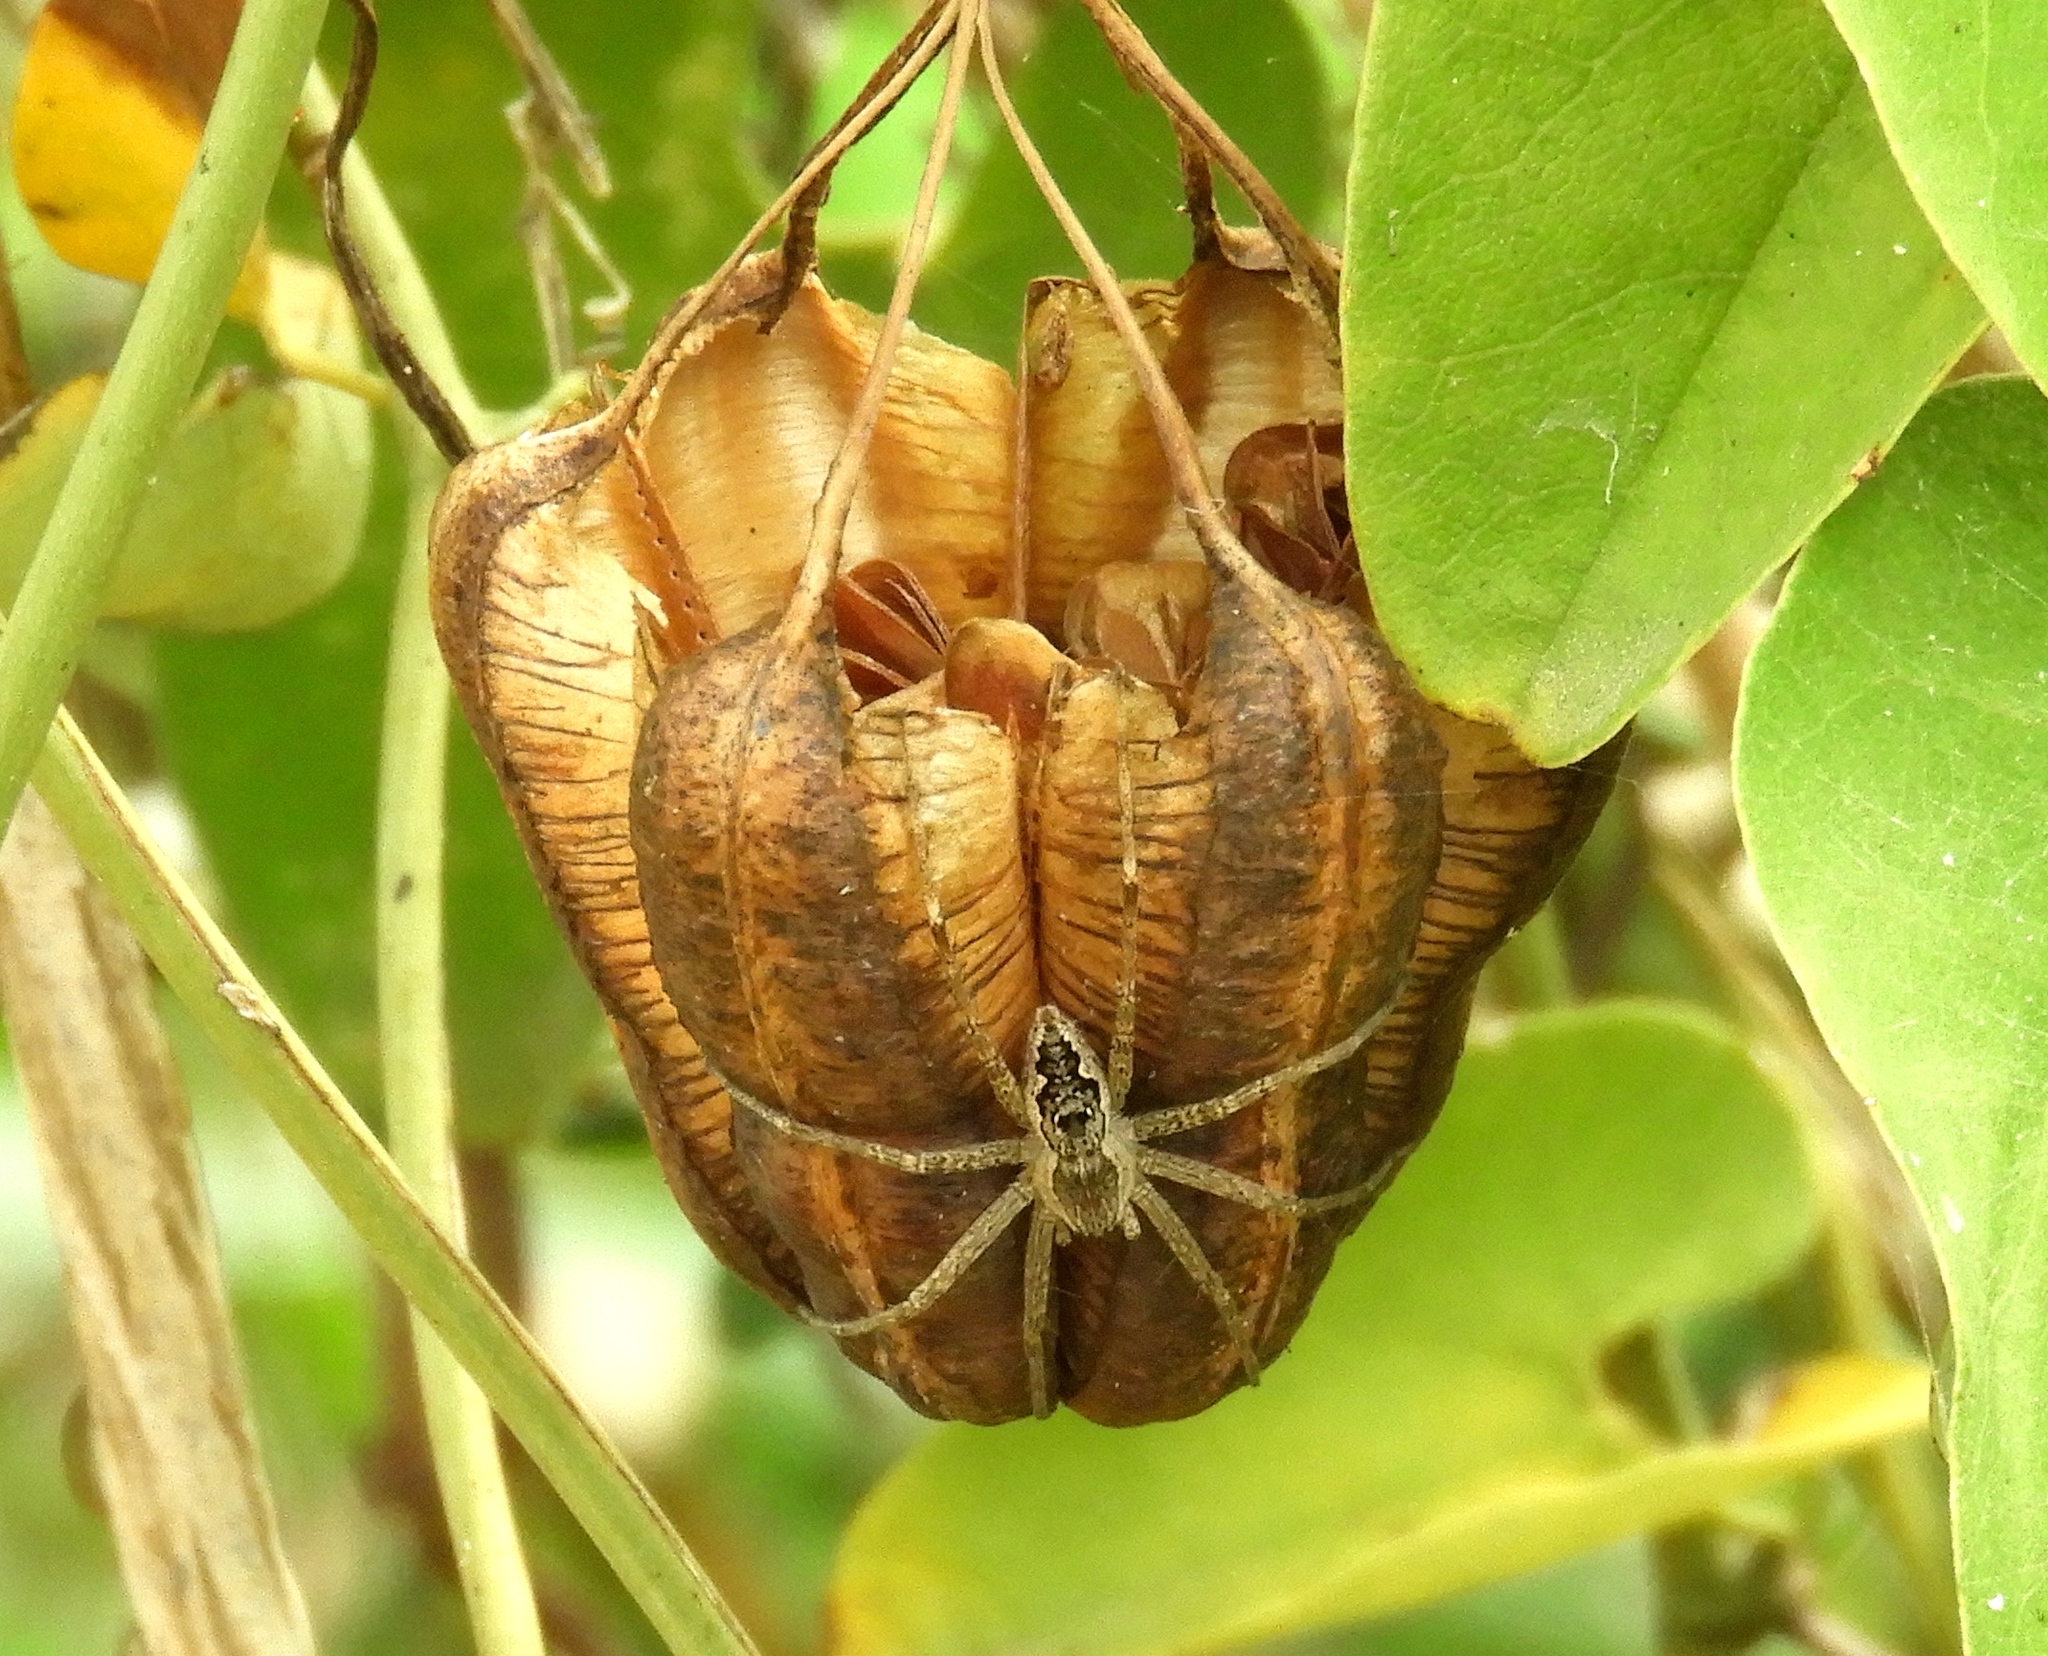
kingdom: Plantae
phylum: Tracheophyta
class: Magnoliopsida
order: Piperales
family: Aristolochiaceae
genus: Aristolochia
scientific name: Aristolochia
